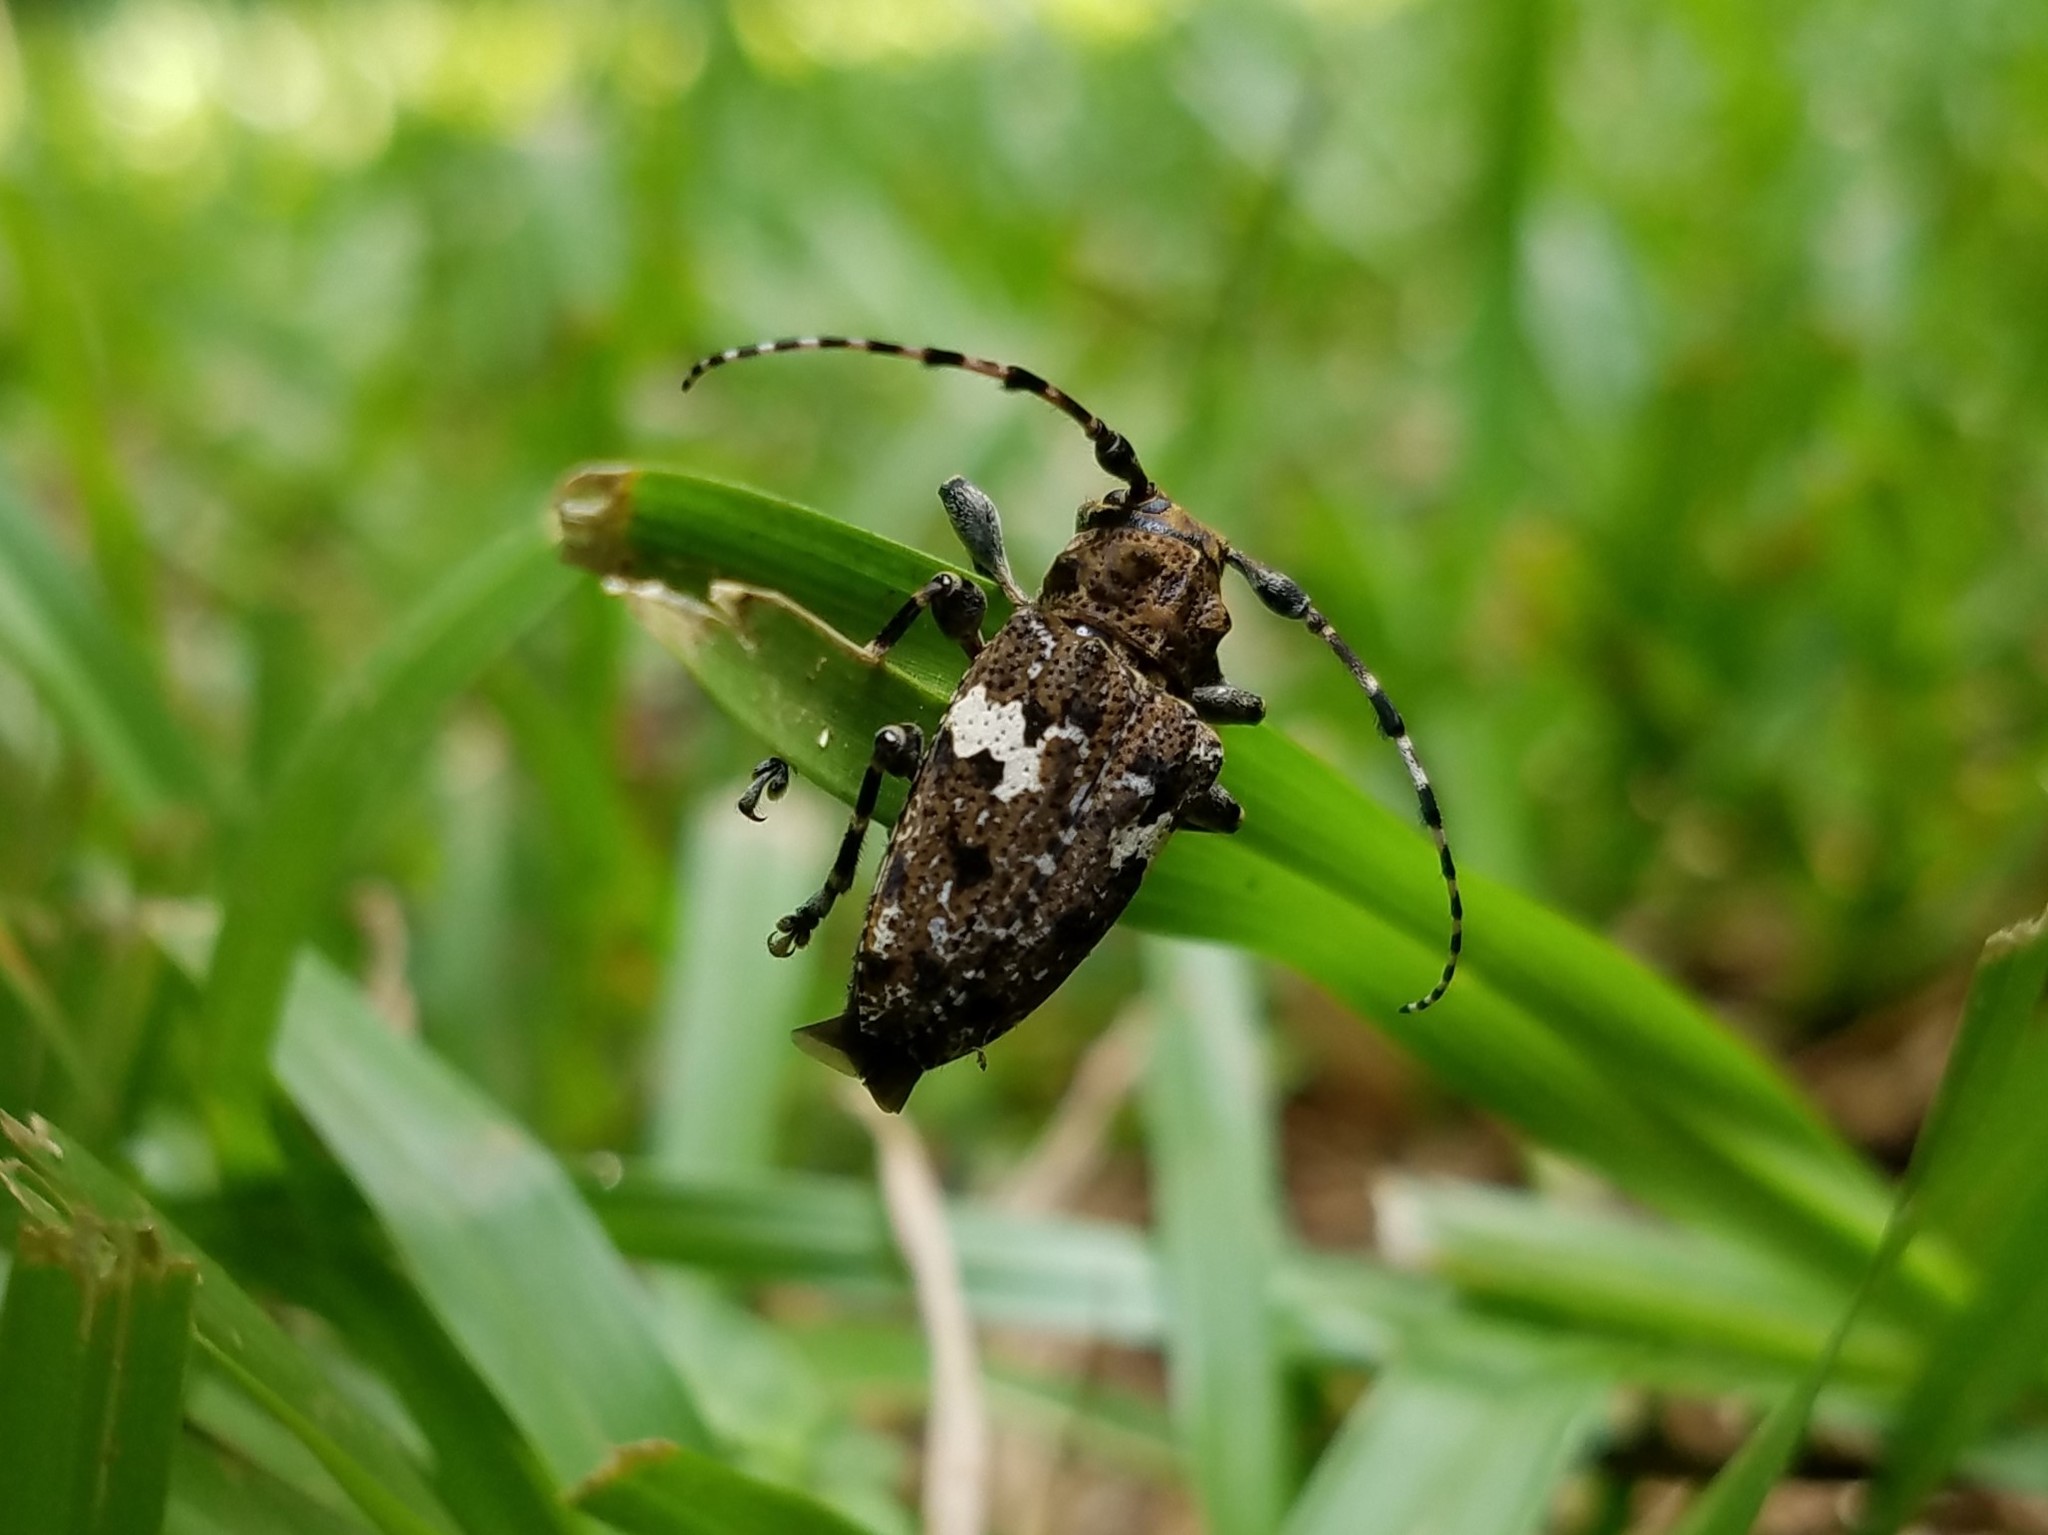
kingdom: Animalia
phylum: Arthropoda
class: Insecta
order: Coleoptera
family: Cerambycidae
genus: Acanthoderes
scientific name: Acanthoderes quadrigibba
